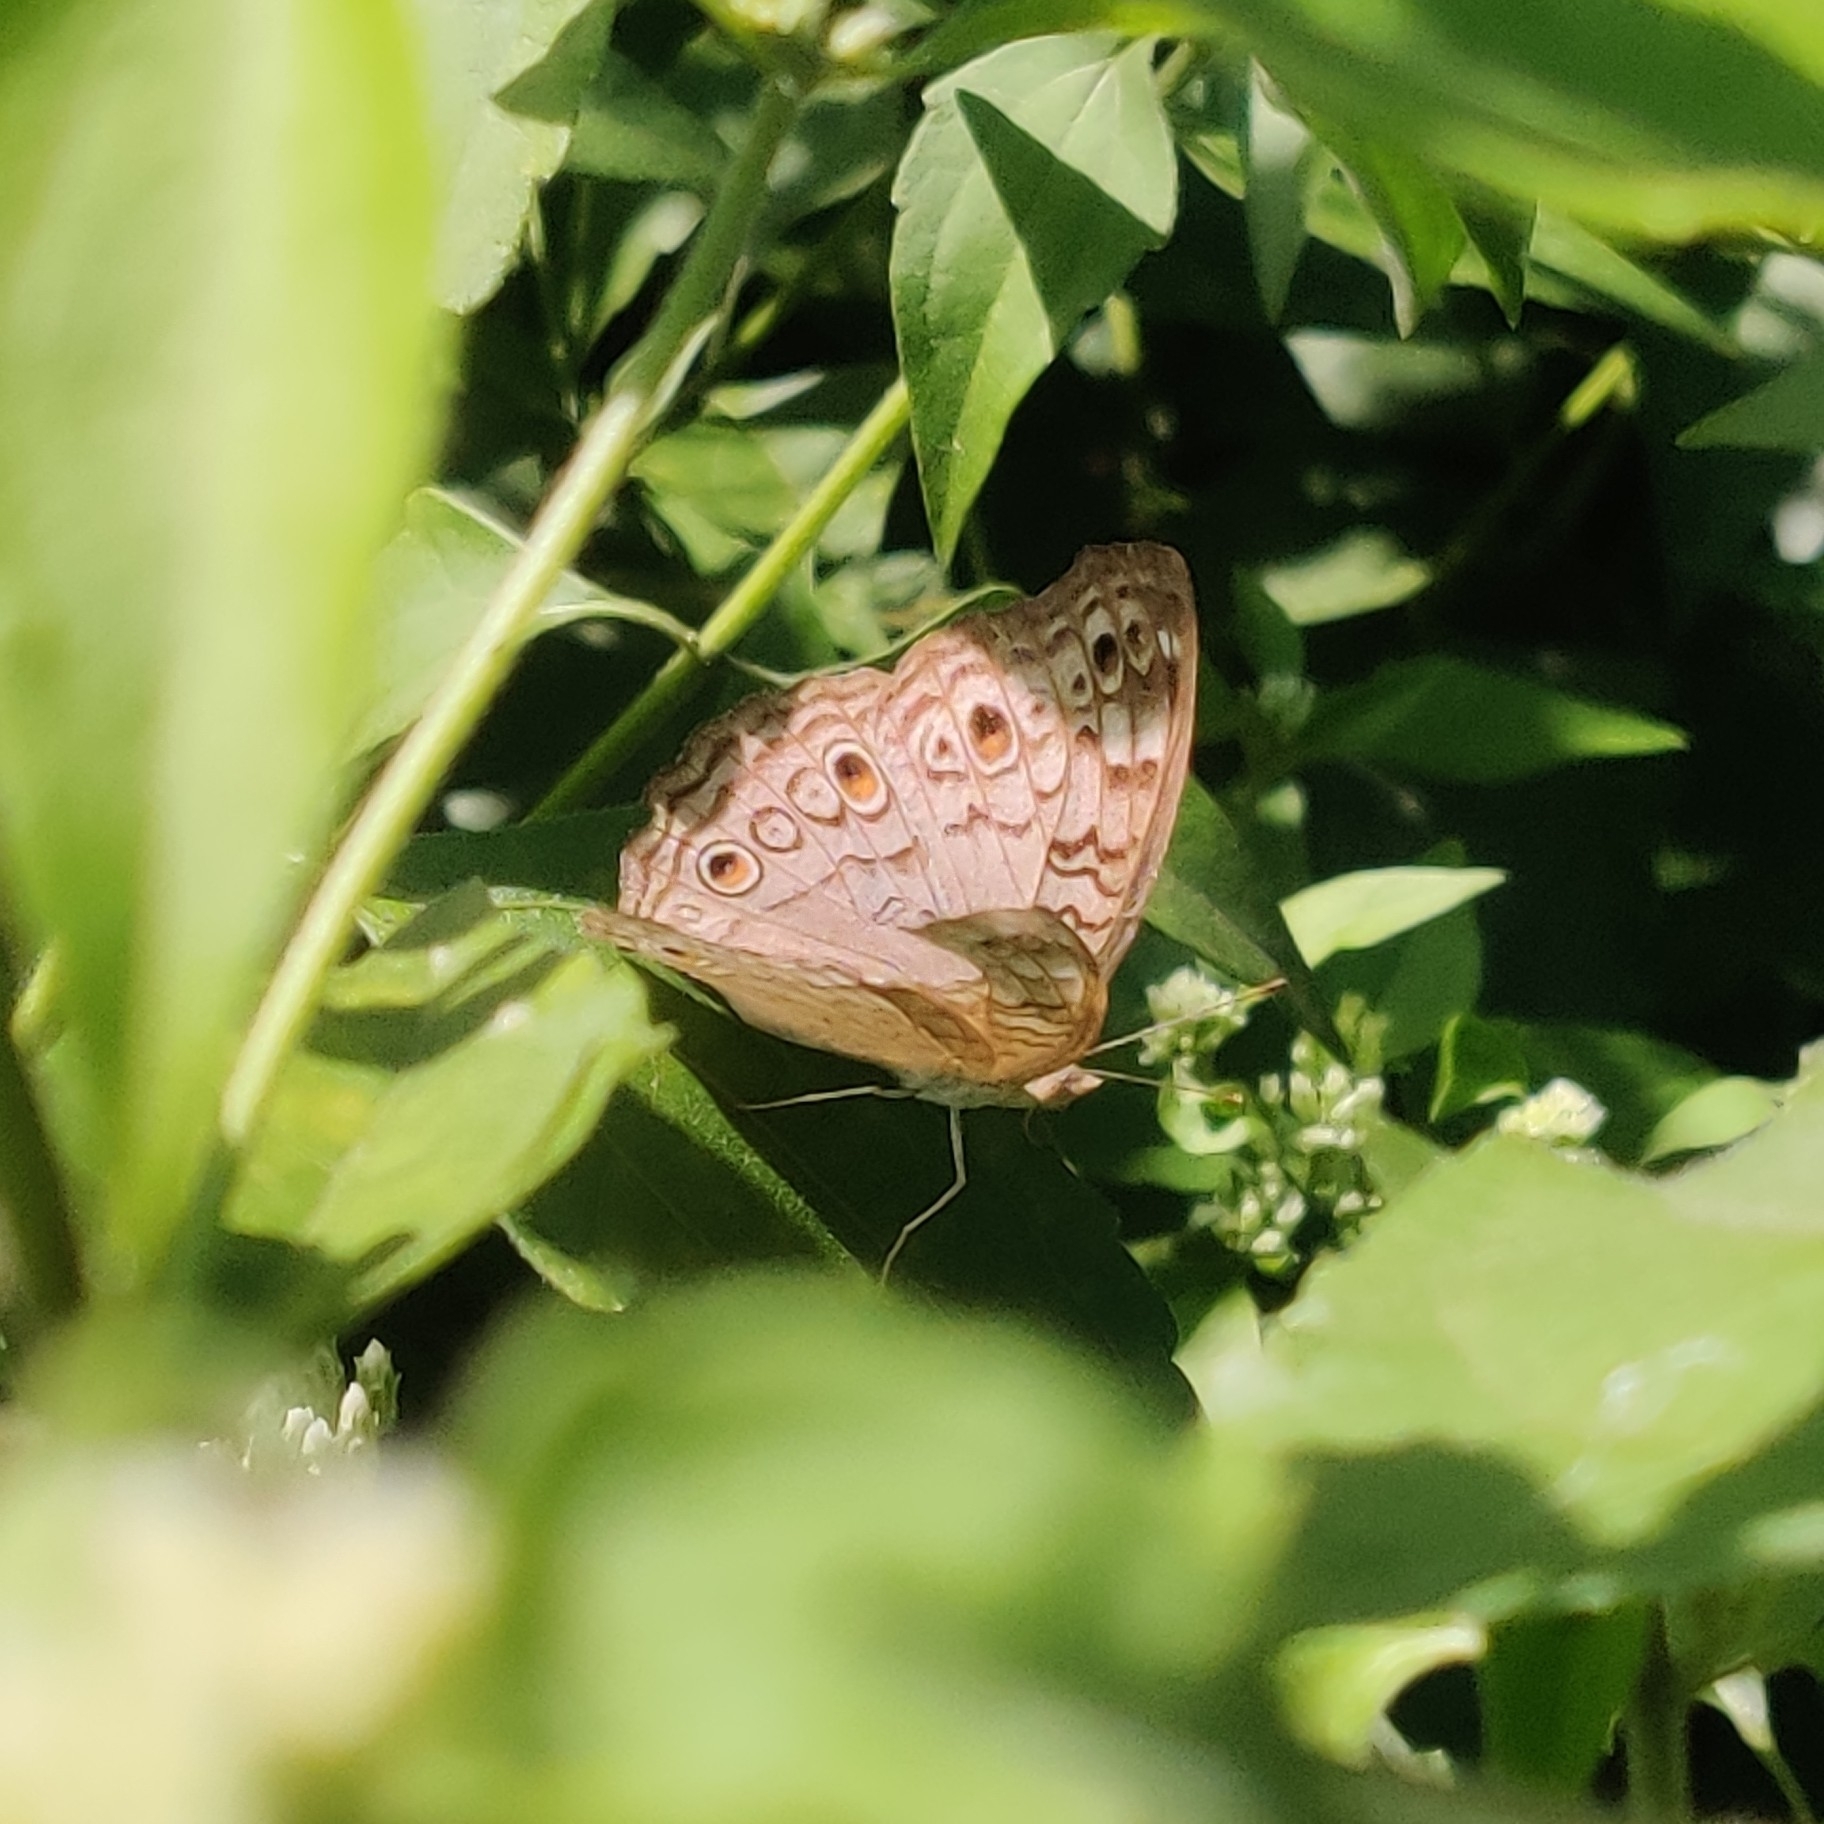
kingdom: Animalia
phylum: Arthropoda
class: Insecta
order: Lepidoptera
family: Nymphalidae
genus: Junonia
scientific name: Junonia atlites
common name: Grey pansy
